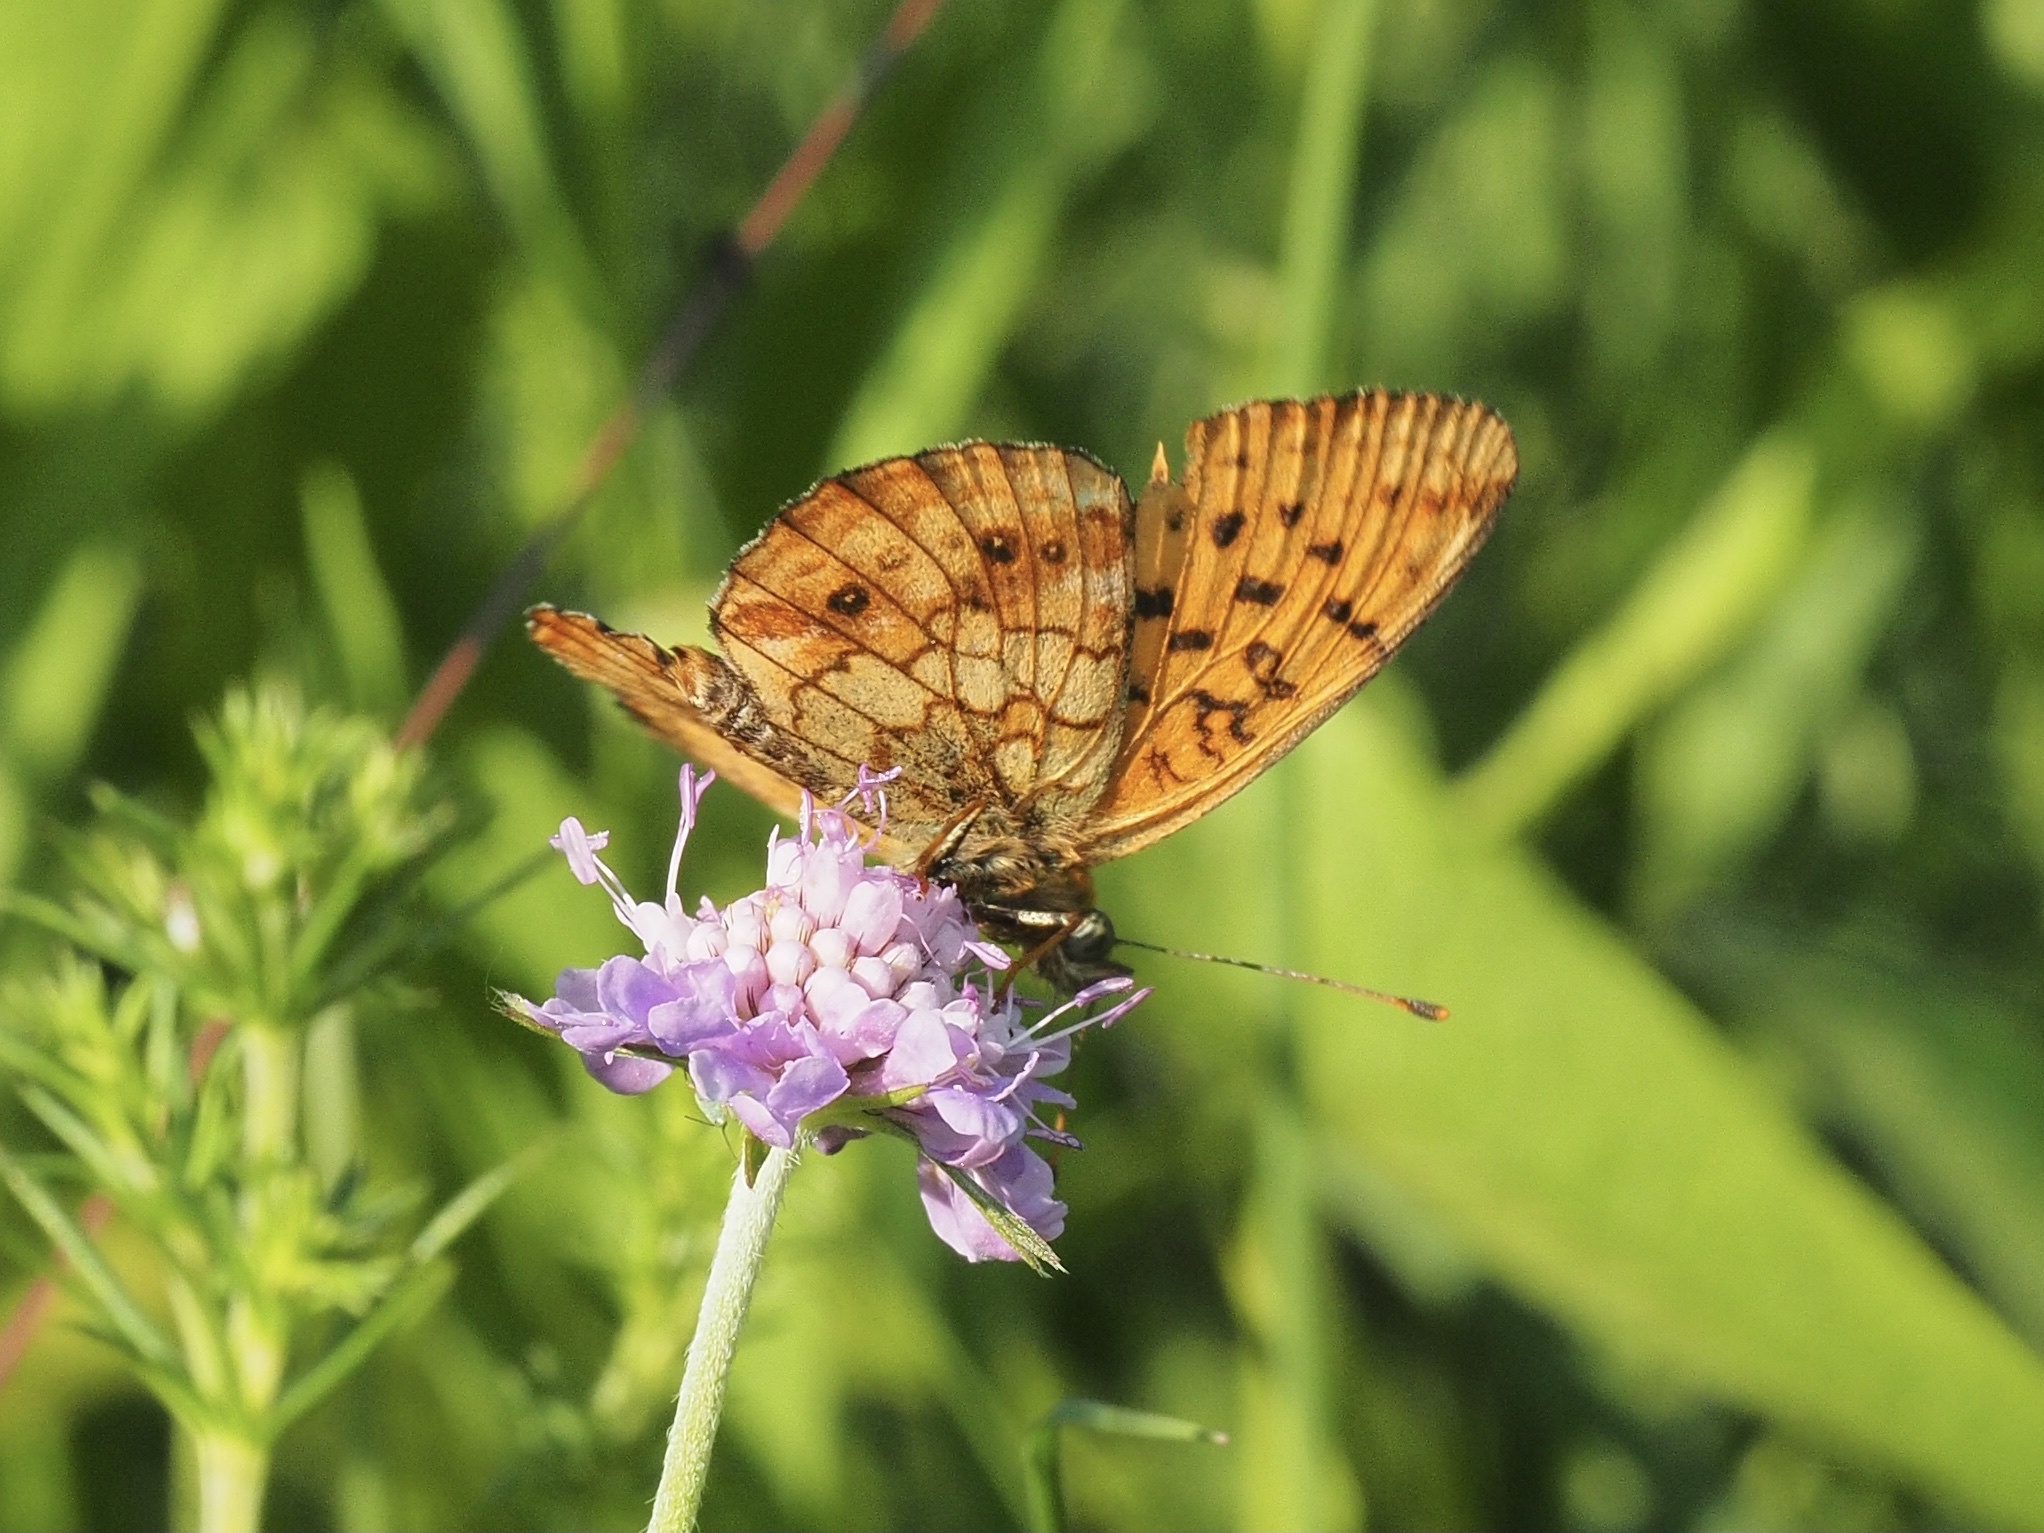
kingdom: Animalia
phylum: Arthropoda
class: Insecta
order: Lepidoptera
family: Nymphalidae
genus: Brenthis
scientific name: Brenthis ino
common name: Lesser marbled fritillary
